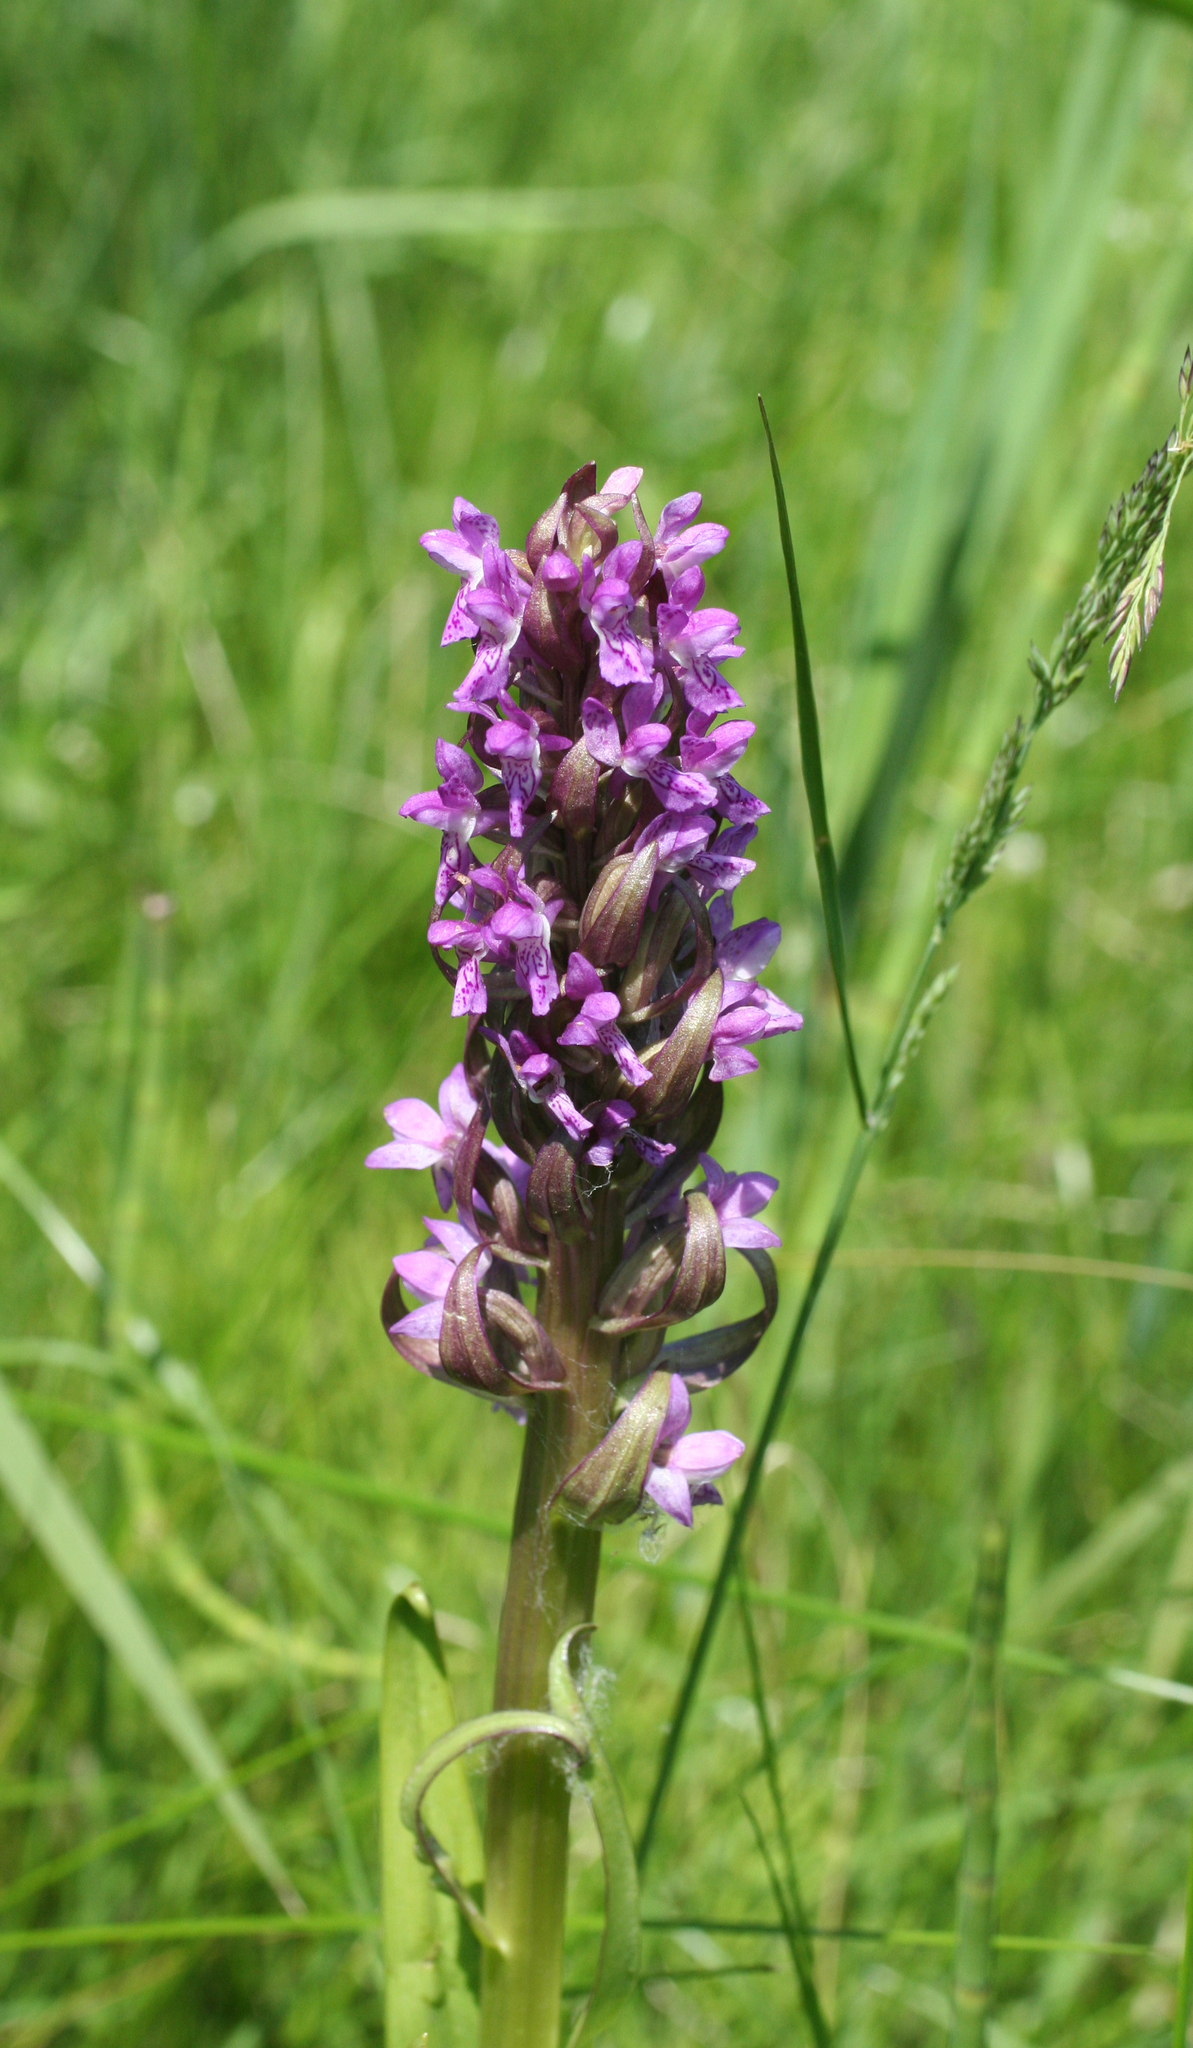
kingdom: Plantae
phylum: Tracheophyta
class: Liliopsida
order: Asparagales
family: Orchidaceae
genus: Dactylorhiza
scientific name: Dactylorhiza incarnata
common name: Early marsh-orchid
